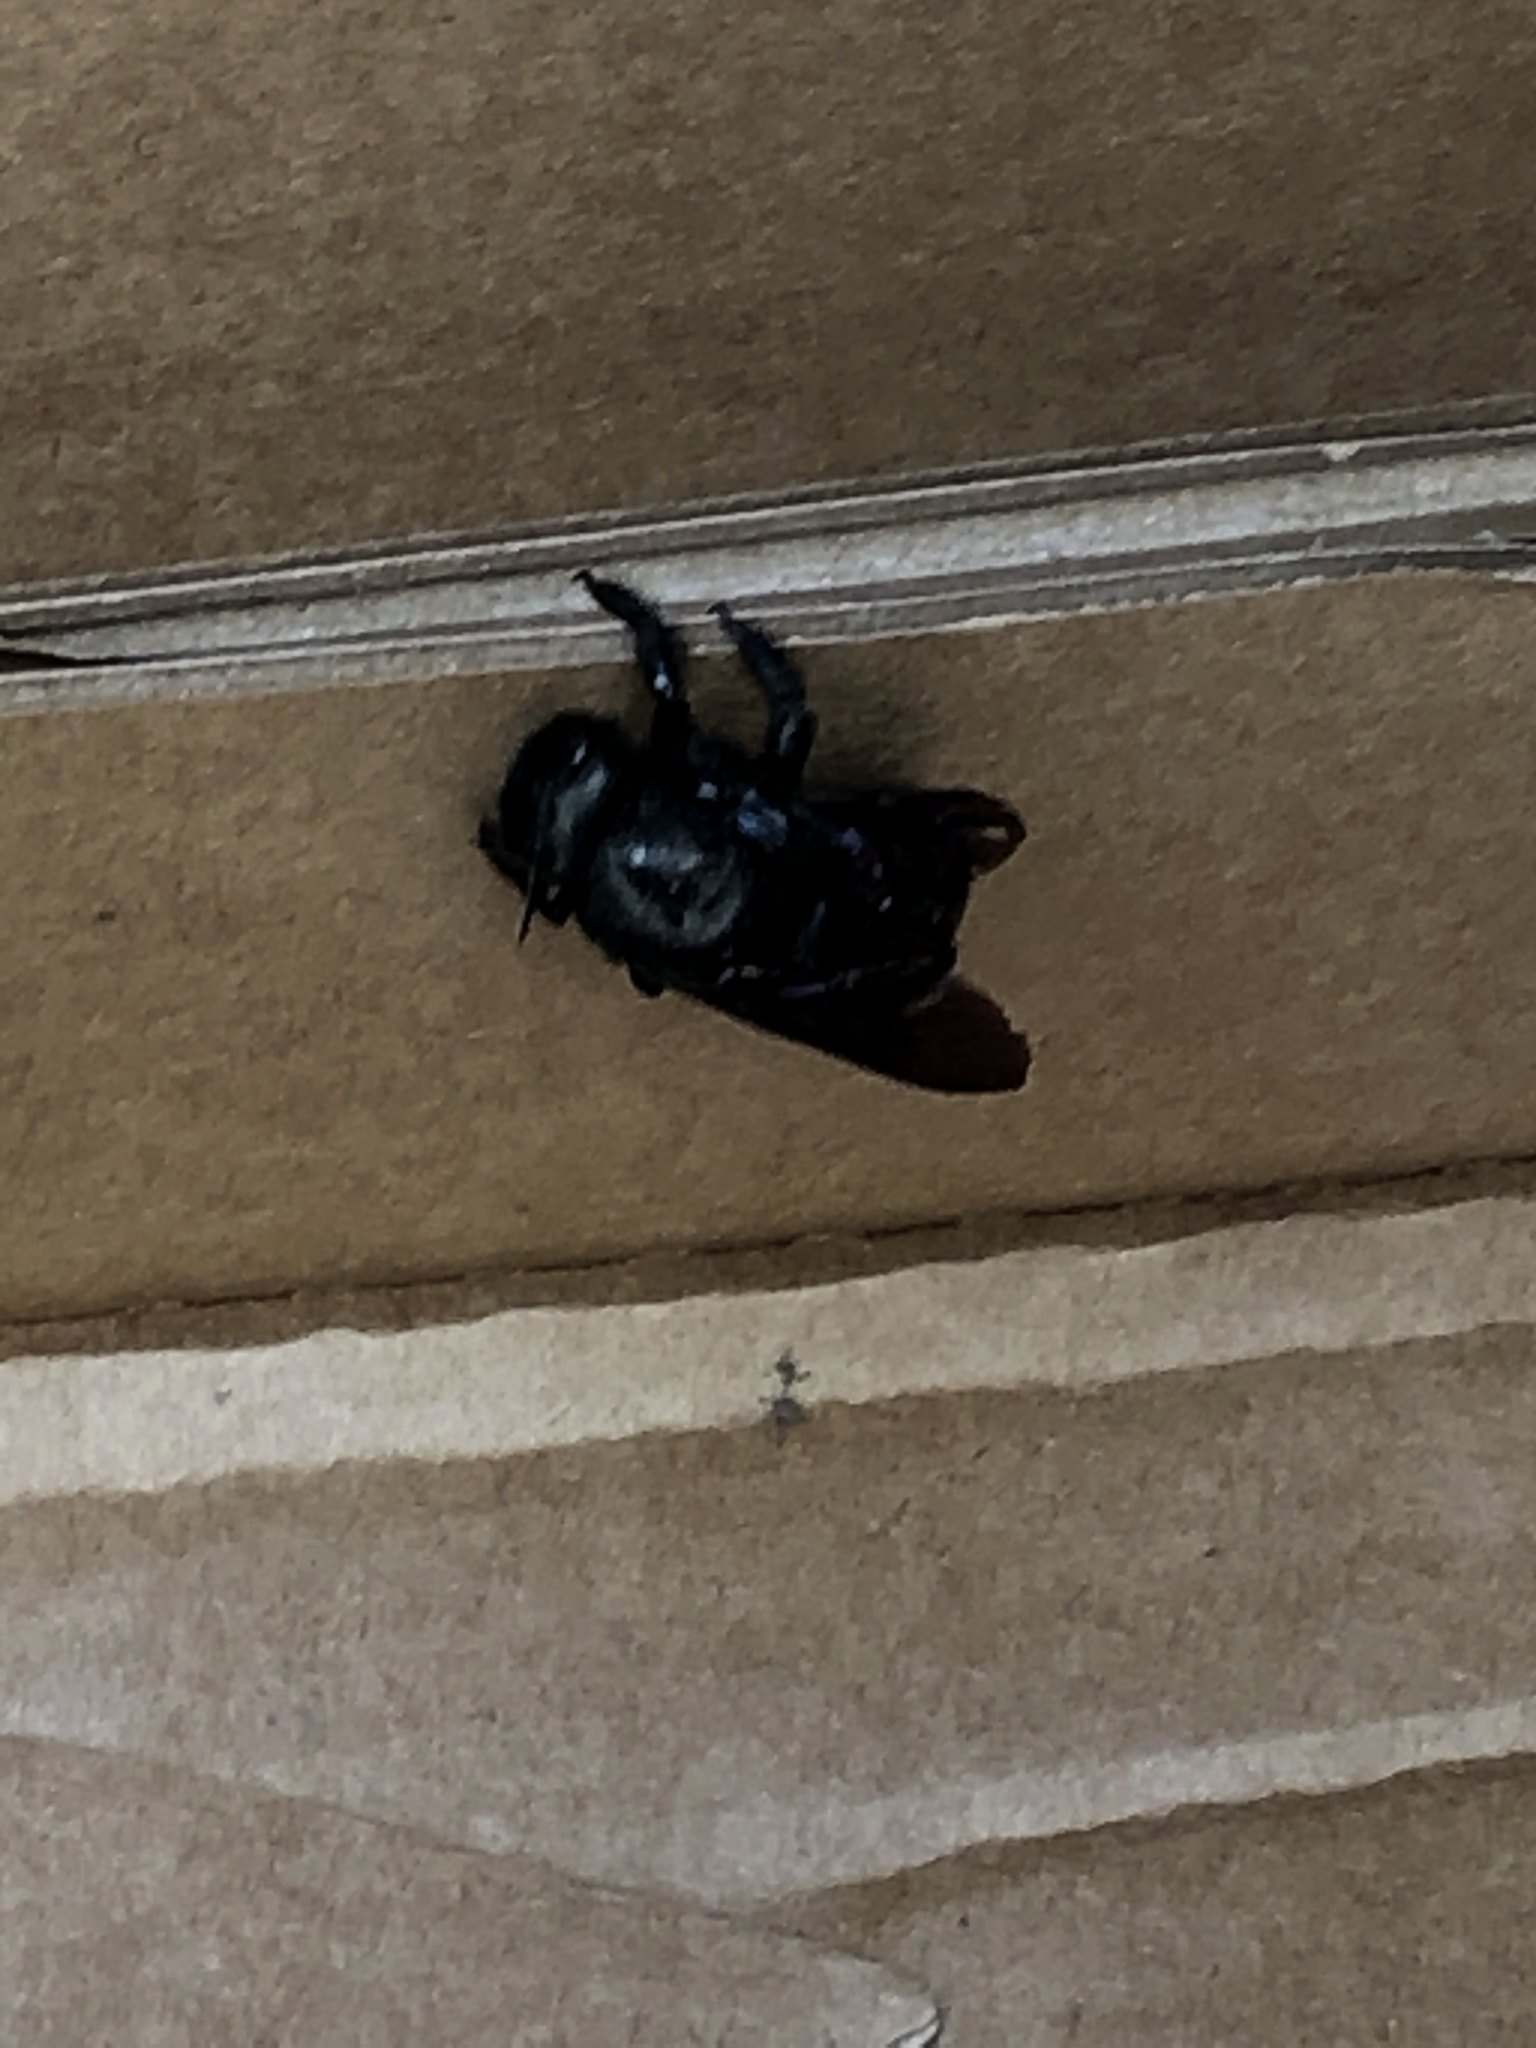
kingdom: Animalia
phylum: Arthropoda
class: Insecta
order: Hymenoptera
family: Apidae
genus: Xylocopa
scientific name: Xylocopa mordax
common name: Antillean carpenter bee
